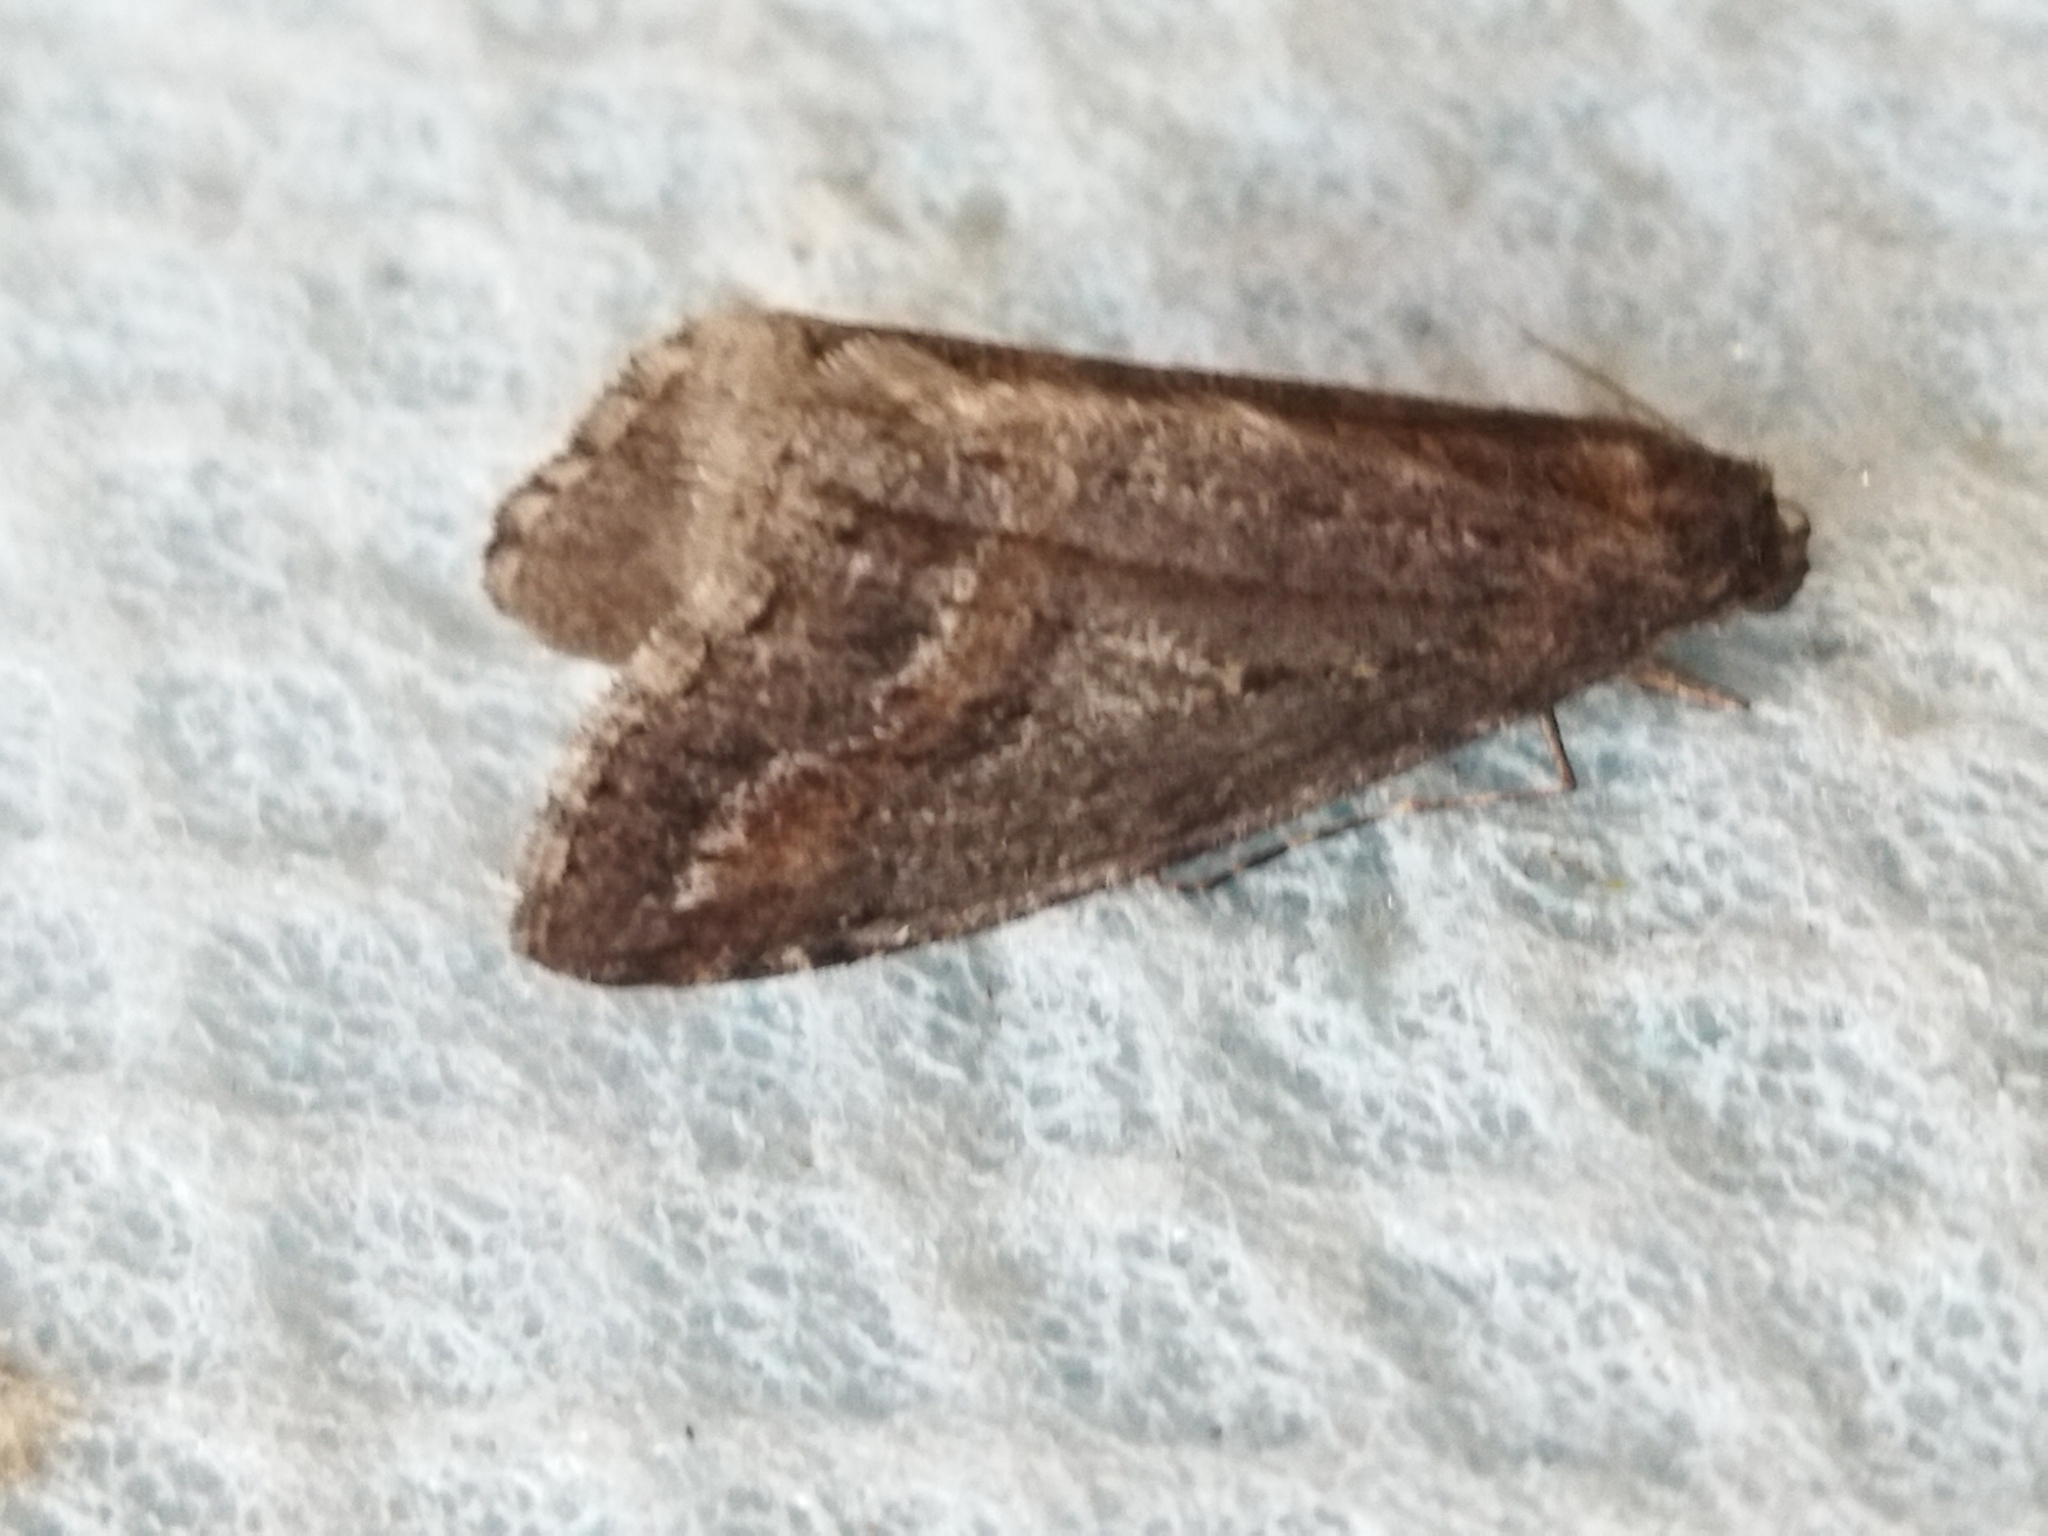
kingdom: Animalia
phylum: Arthropoda
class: Insecta
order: Lepidoptera
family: Geometridae
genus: Erannis
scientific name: Erannis declinans
